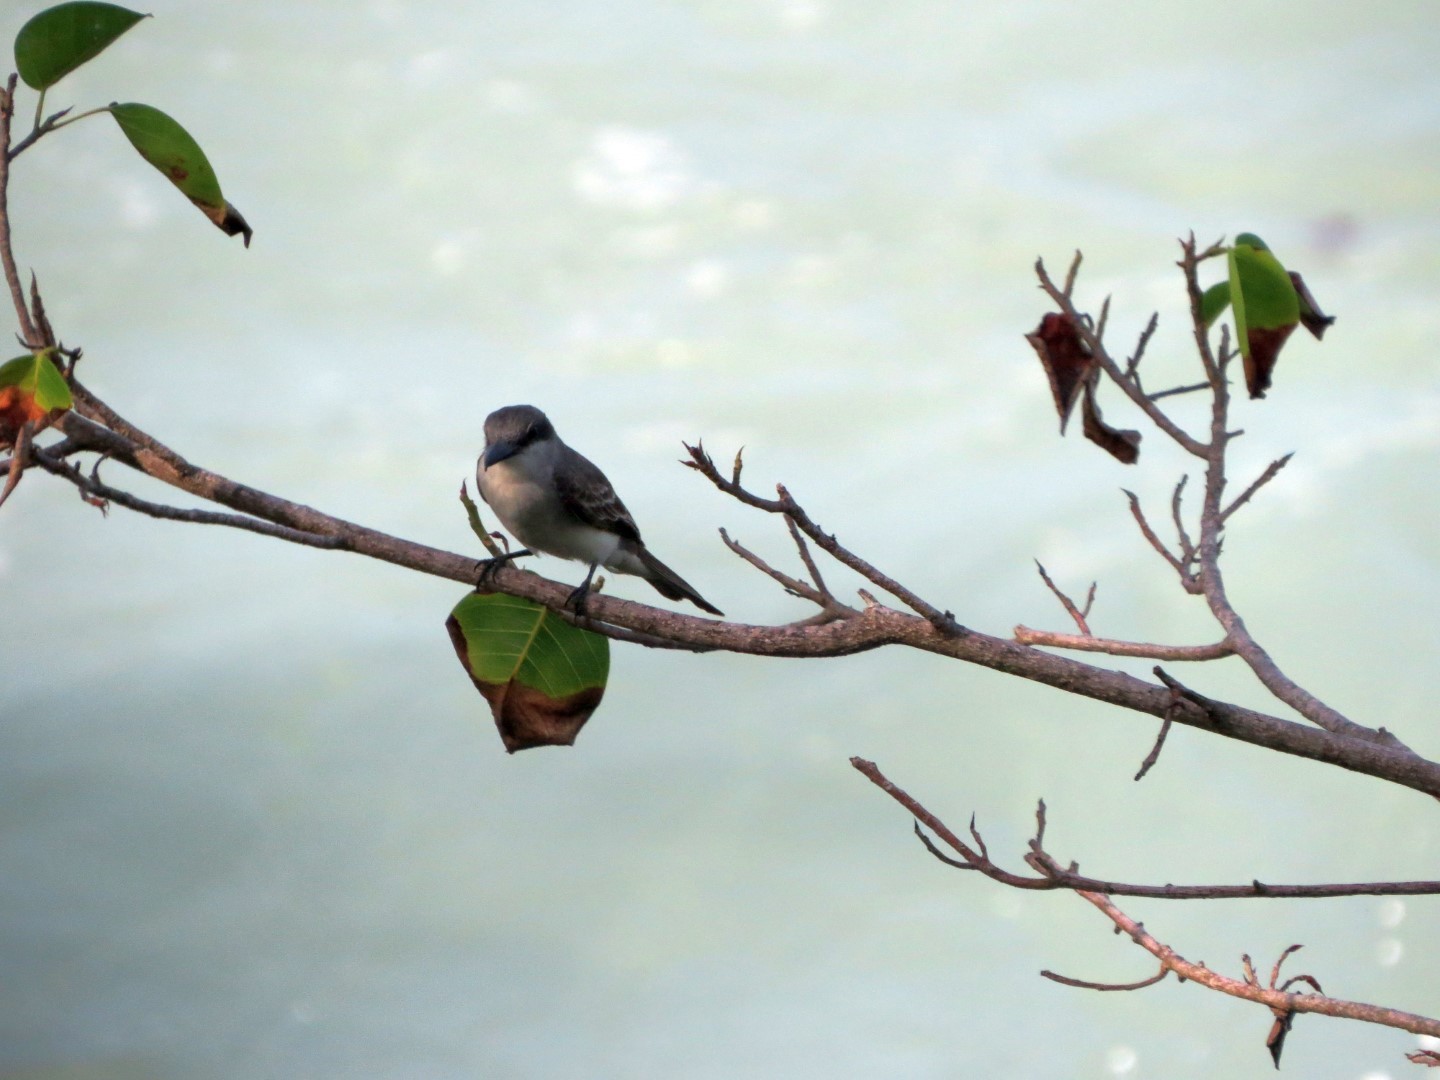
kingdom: Animalia
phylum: Chordata
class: Aves
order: Passeriformes
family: Tyrannidae
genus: Tyrannus
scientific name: Tyrannus dominicensis
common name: Gray kingbird
